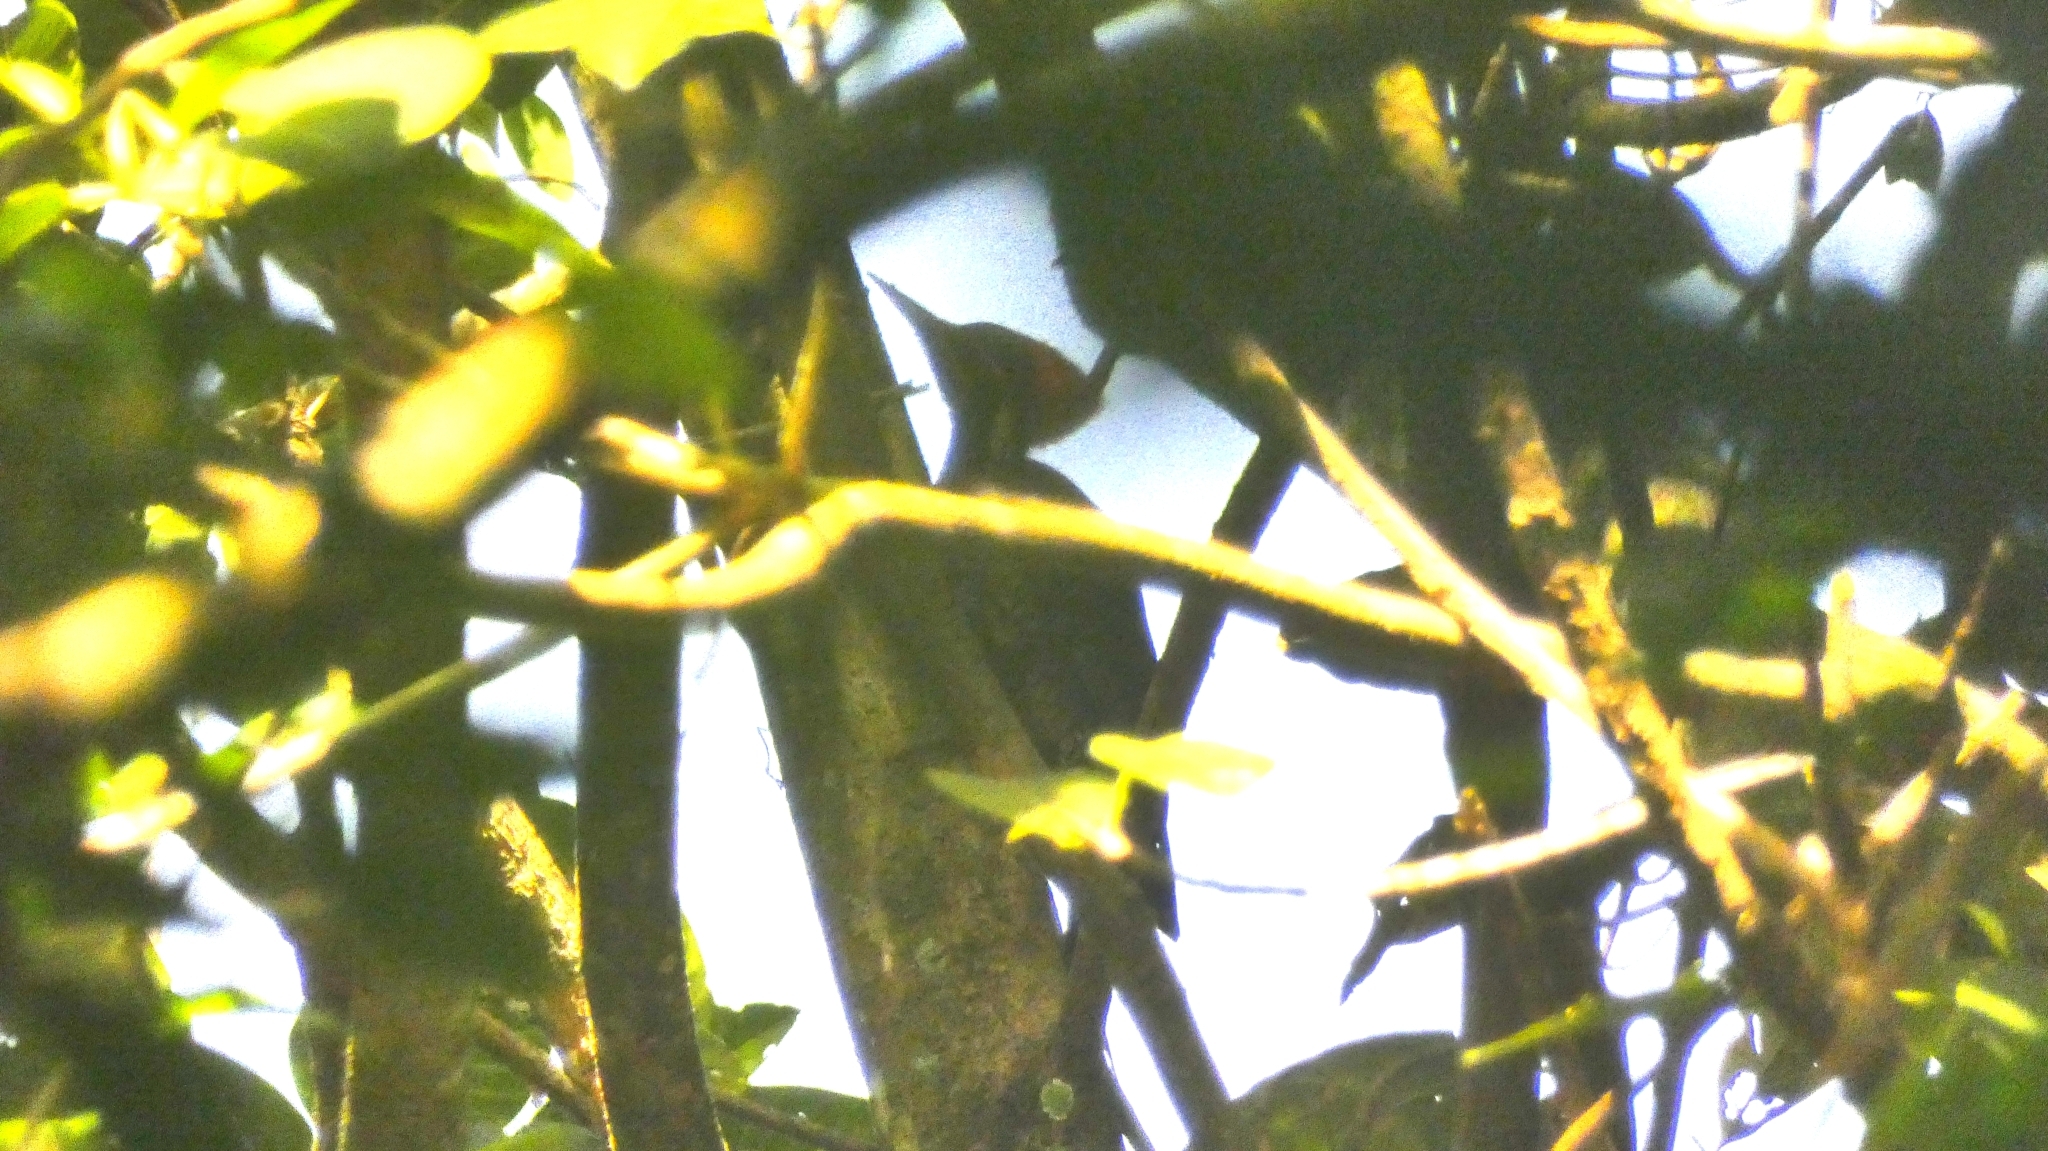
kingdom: Animalia
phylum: Chordata
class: Aves
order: Piciformes
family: Picidae
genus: Dryocopus
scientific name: Dryocopus lineatus
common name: Lineated woodpecker
